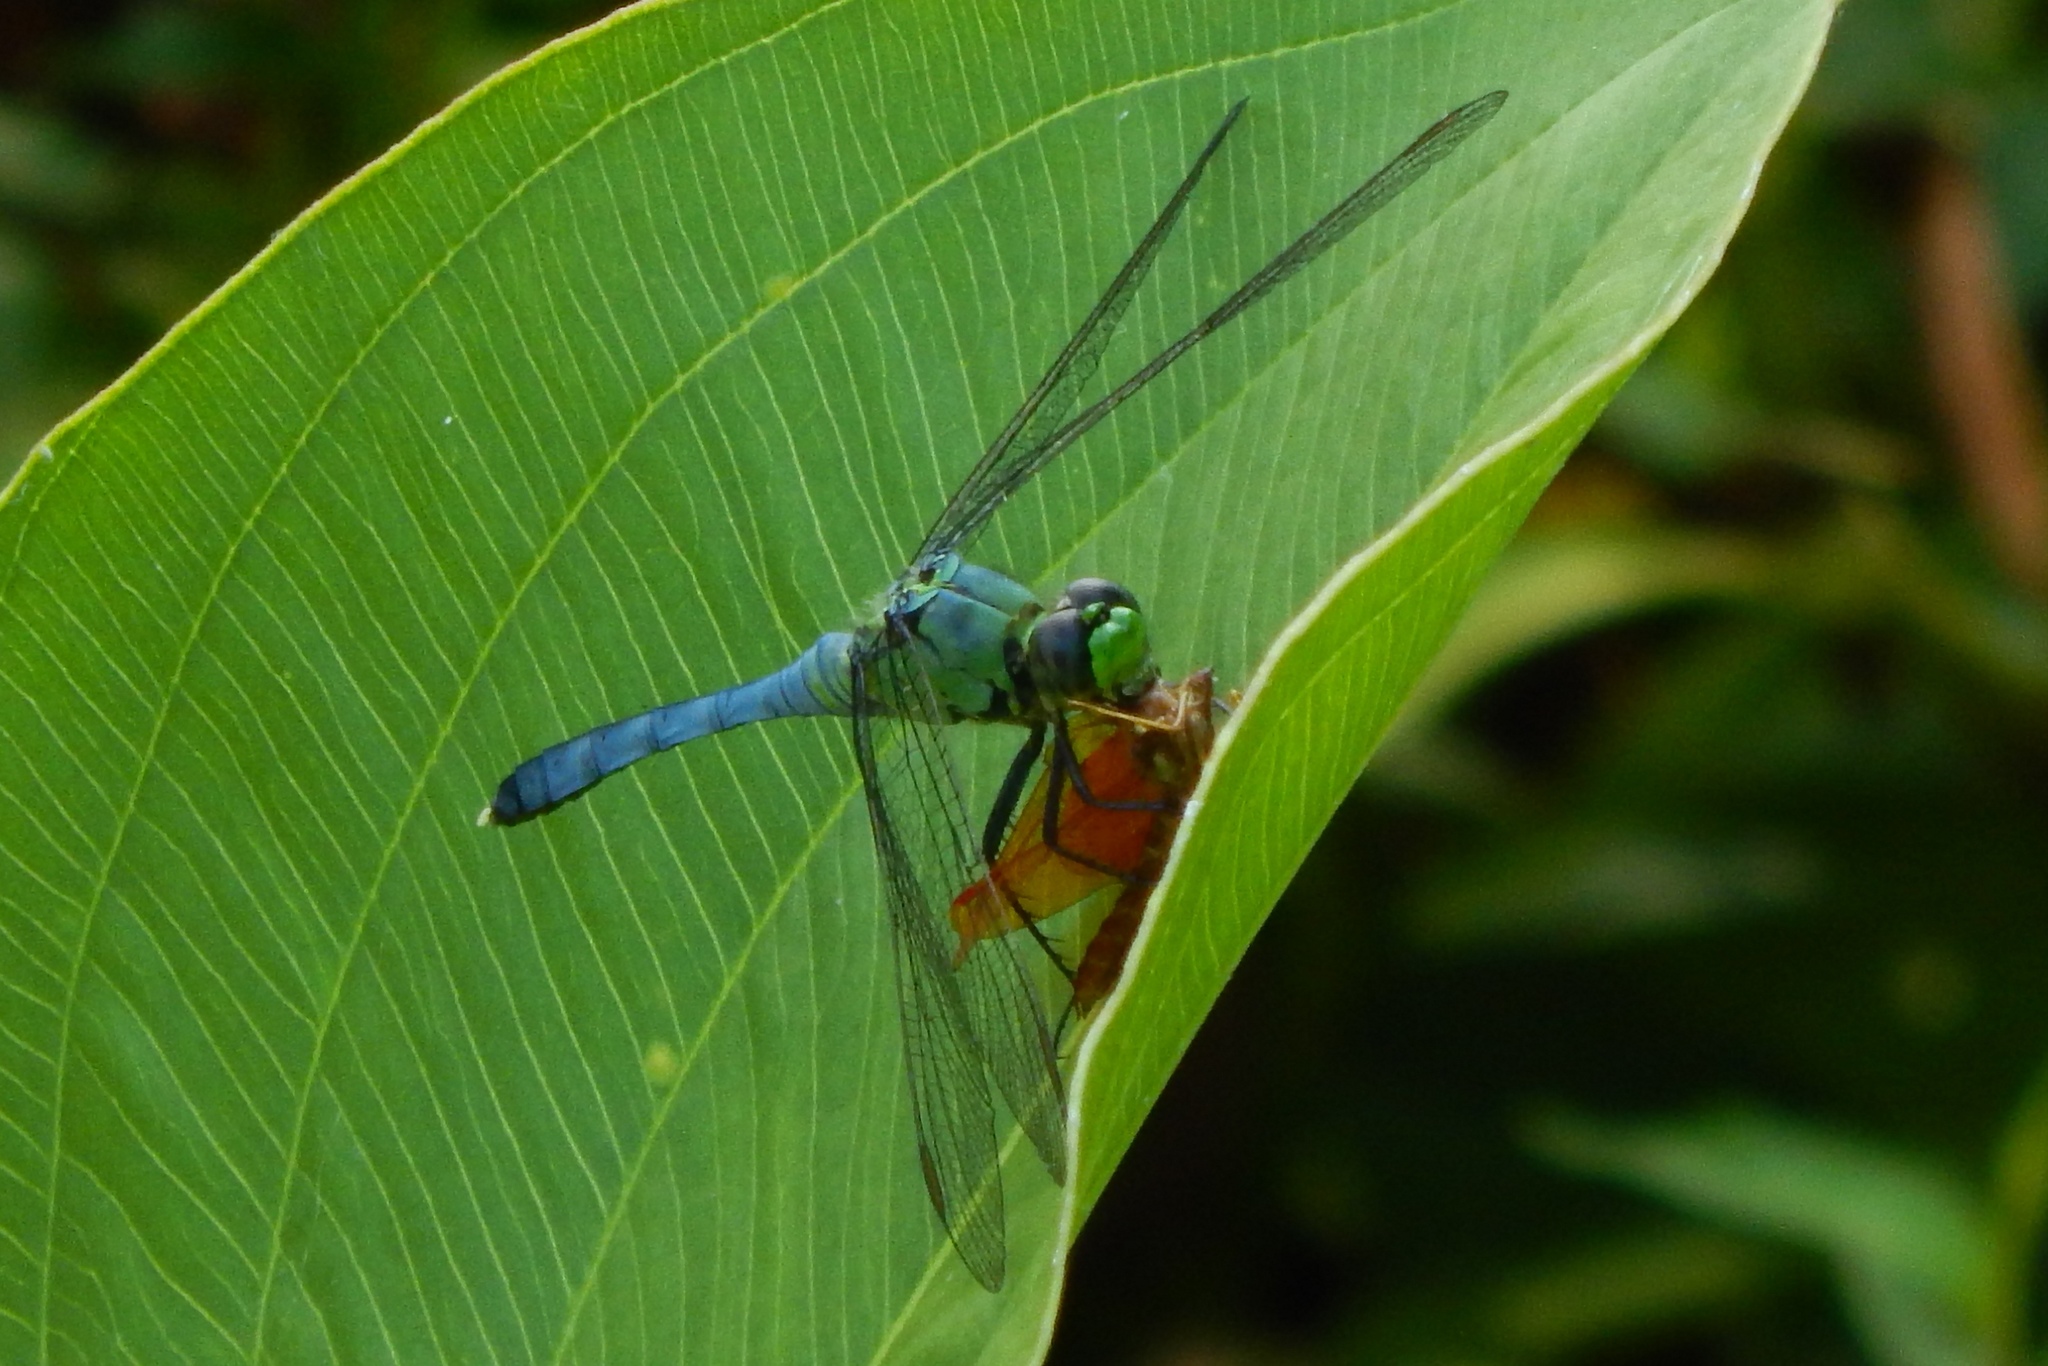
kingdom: Animalia
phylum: Arthropoda
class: Insecta
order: Odonata
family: Libellulidae
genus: Erythemis
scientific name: Erythemis simplicicollis
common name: Eastern pondhawk
